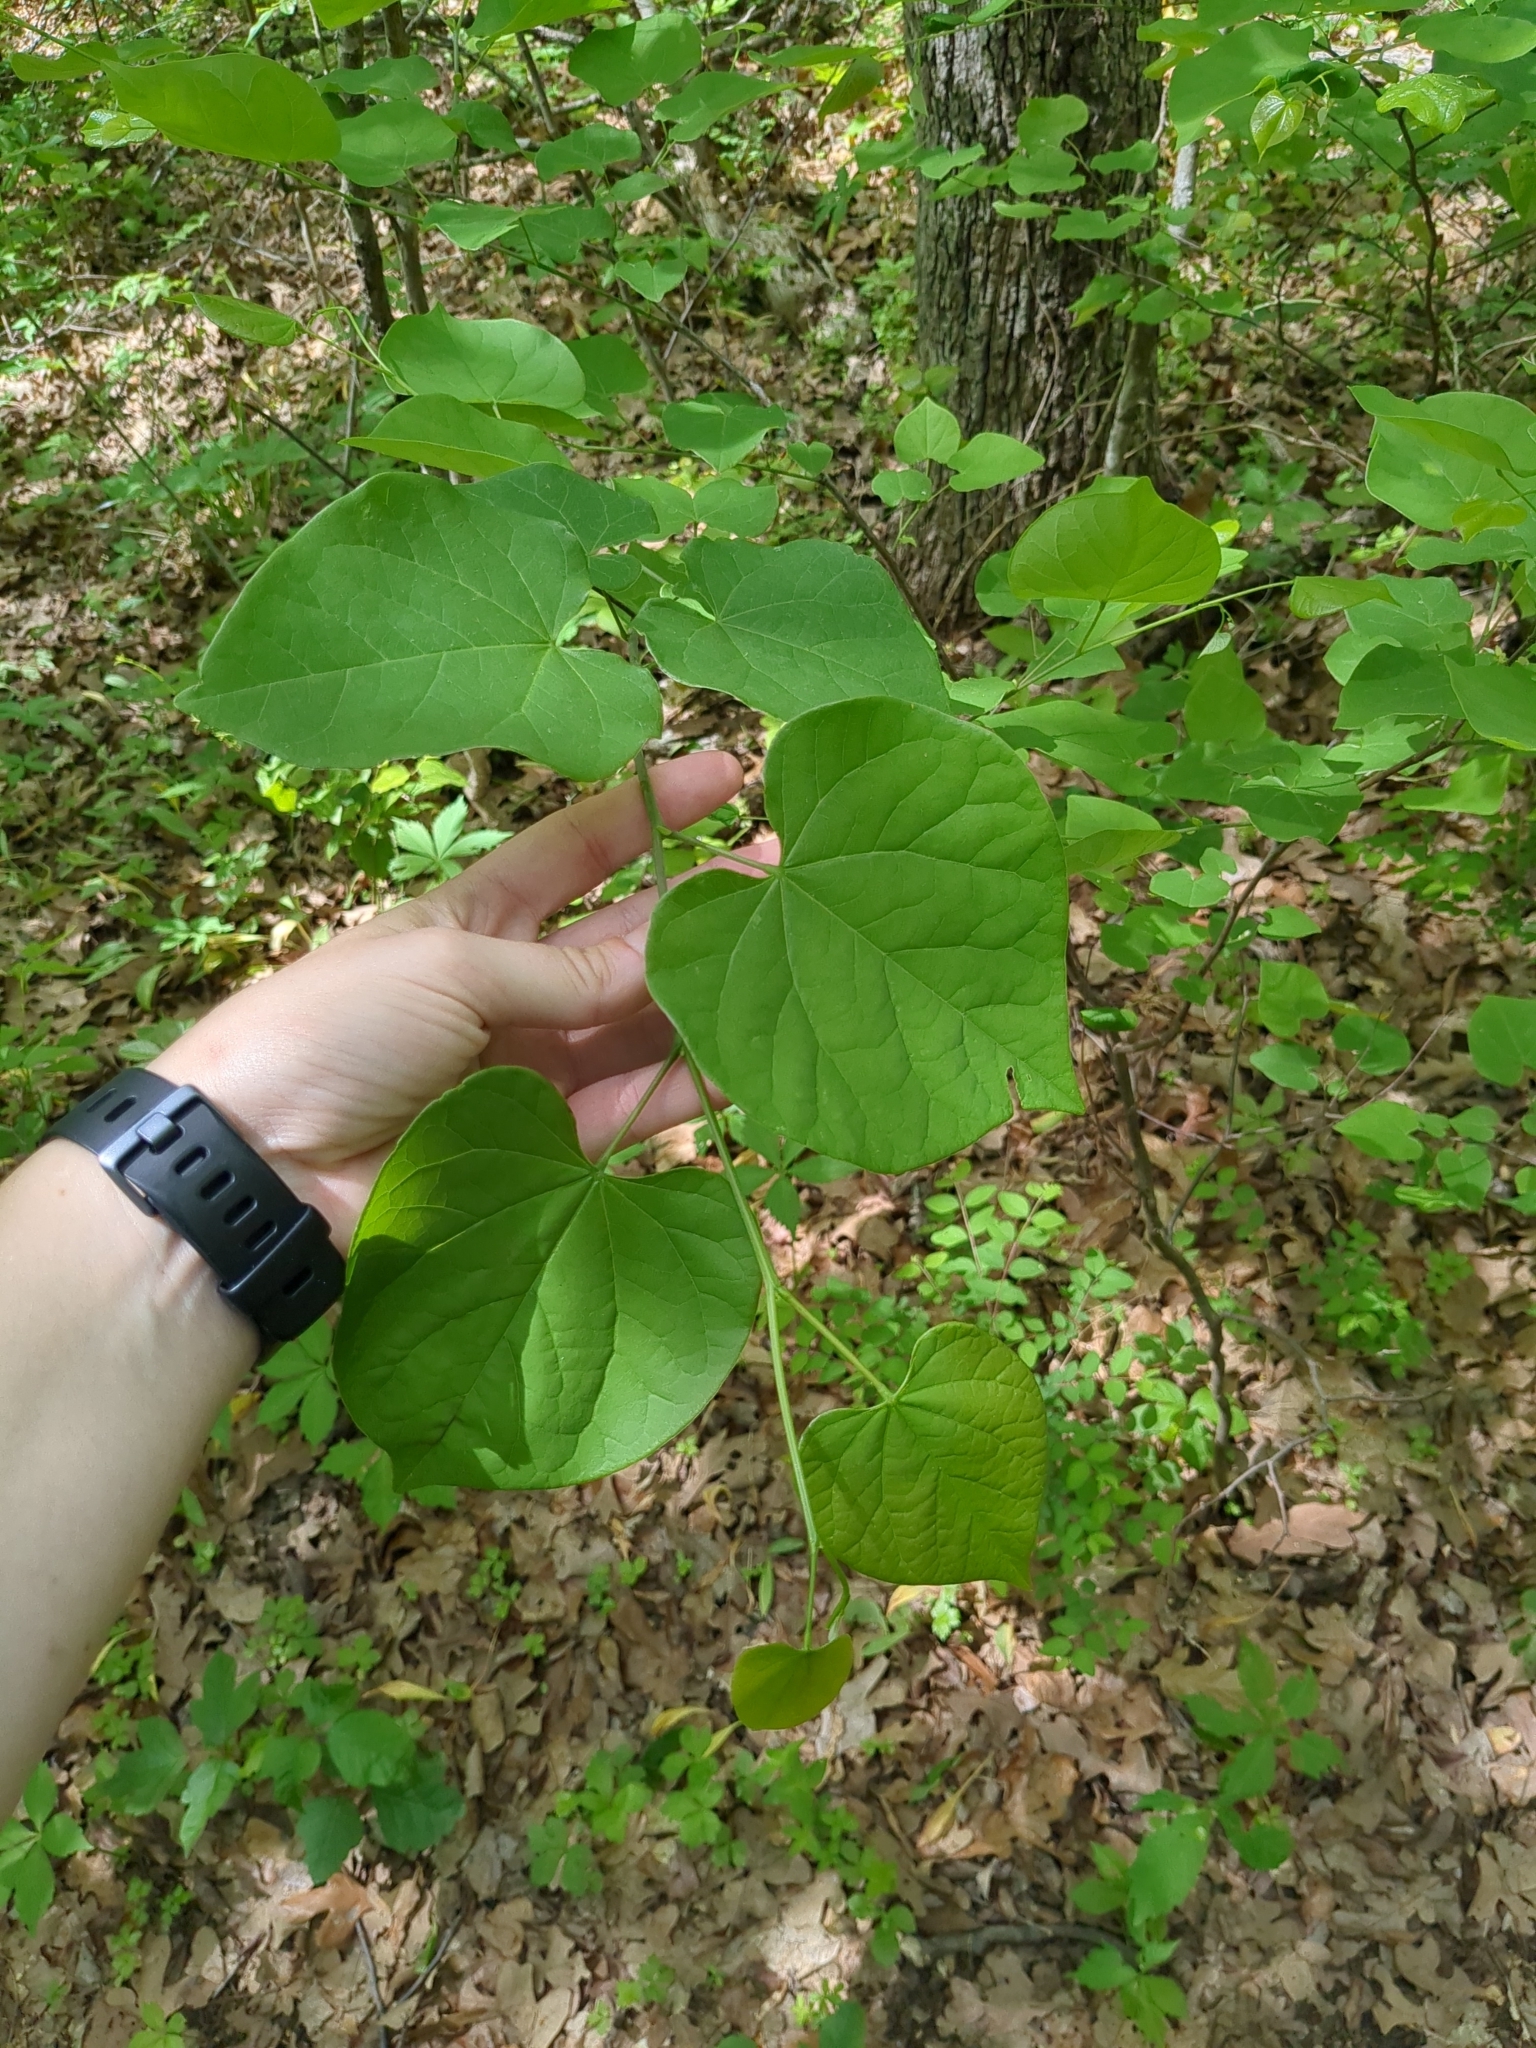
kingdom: Plantae
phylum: Tracheophyta
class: Magnoliopsida
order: Fabales
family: Fabaceae
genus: Cercis
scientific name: Cercis canadensis
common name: Eastern redbud
